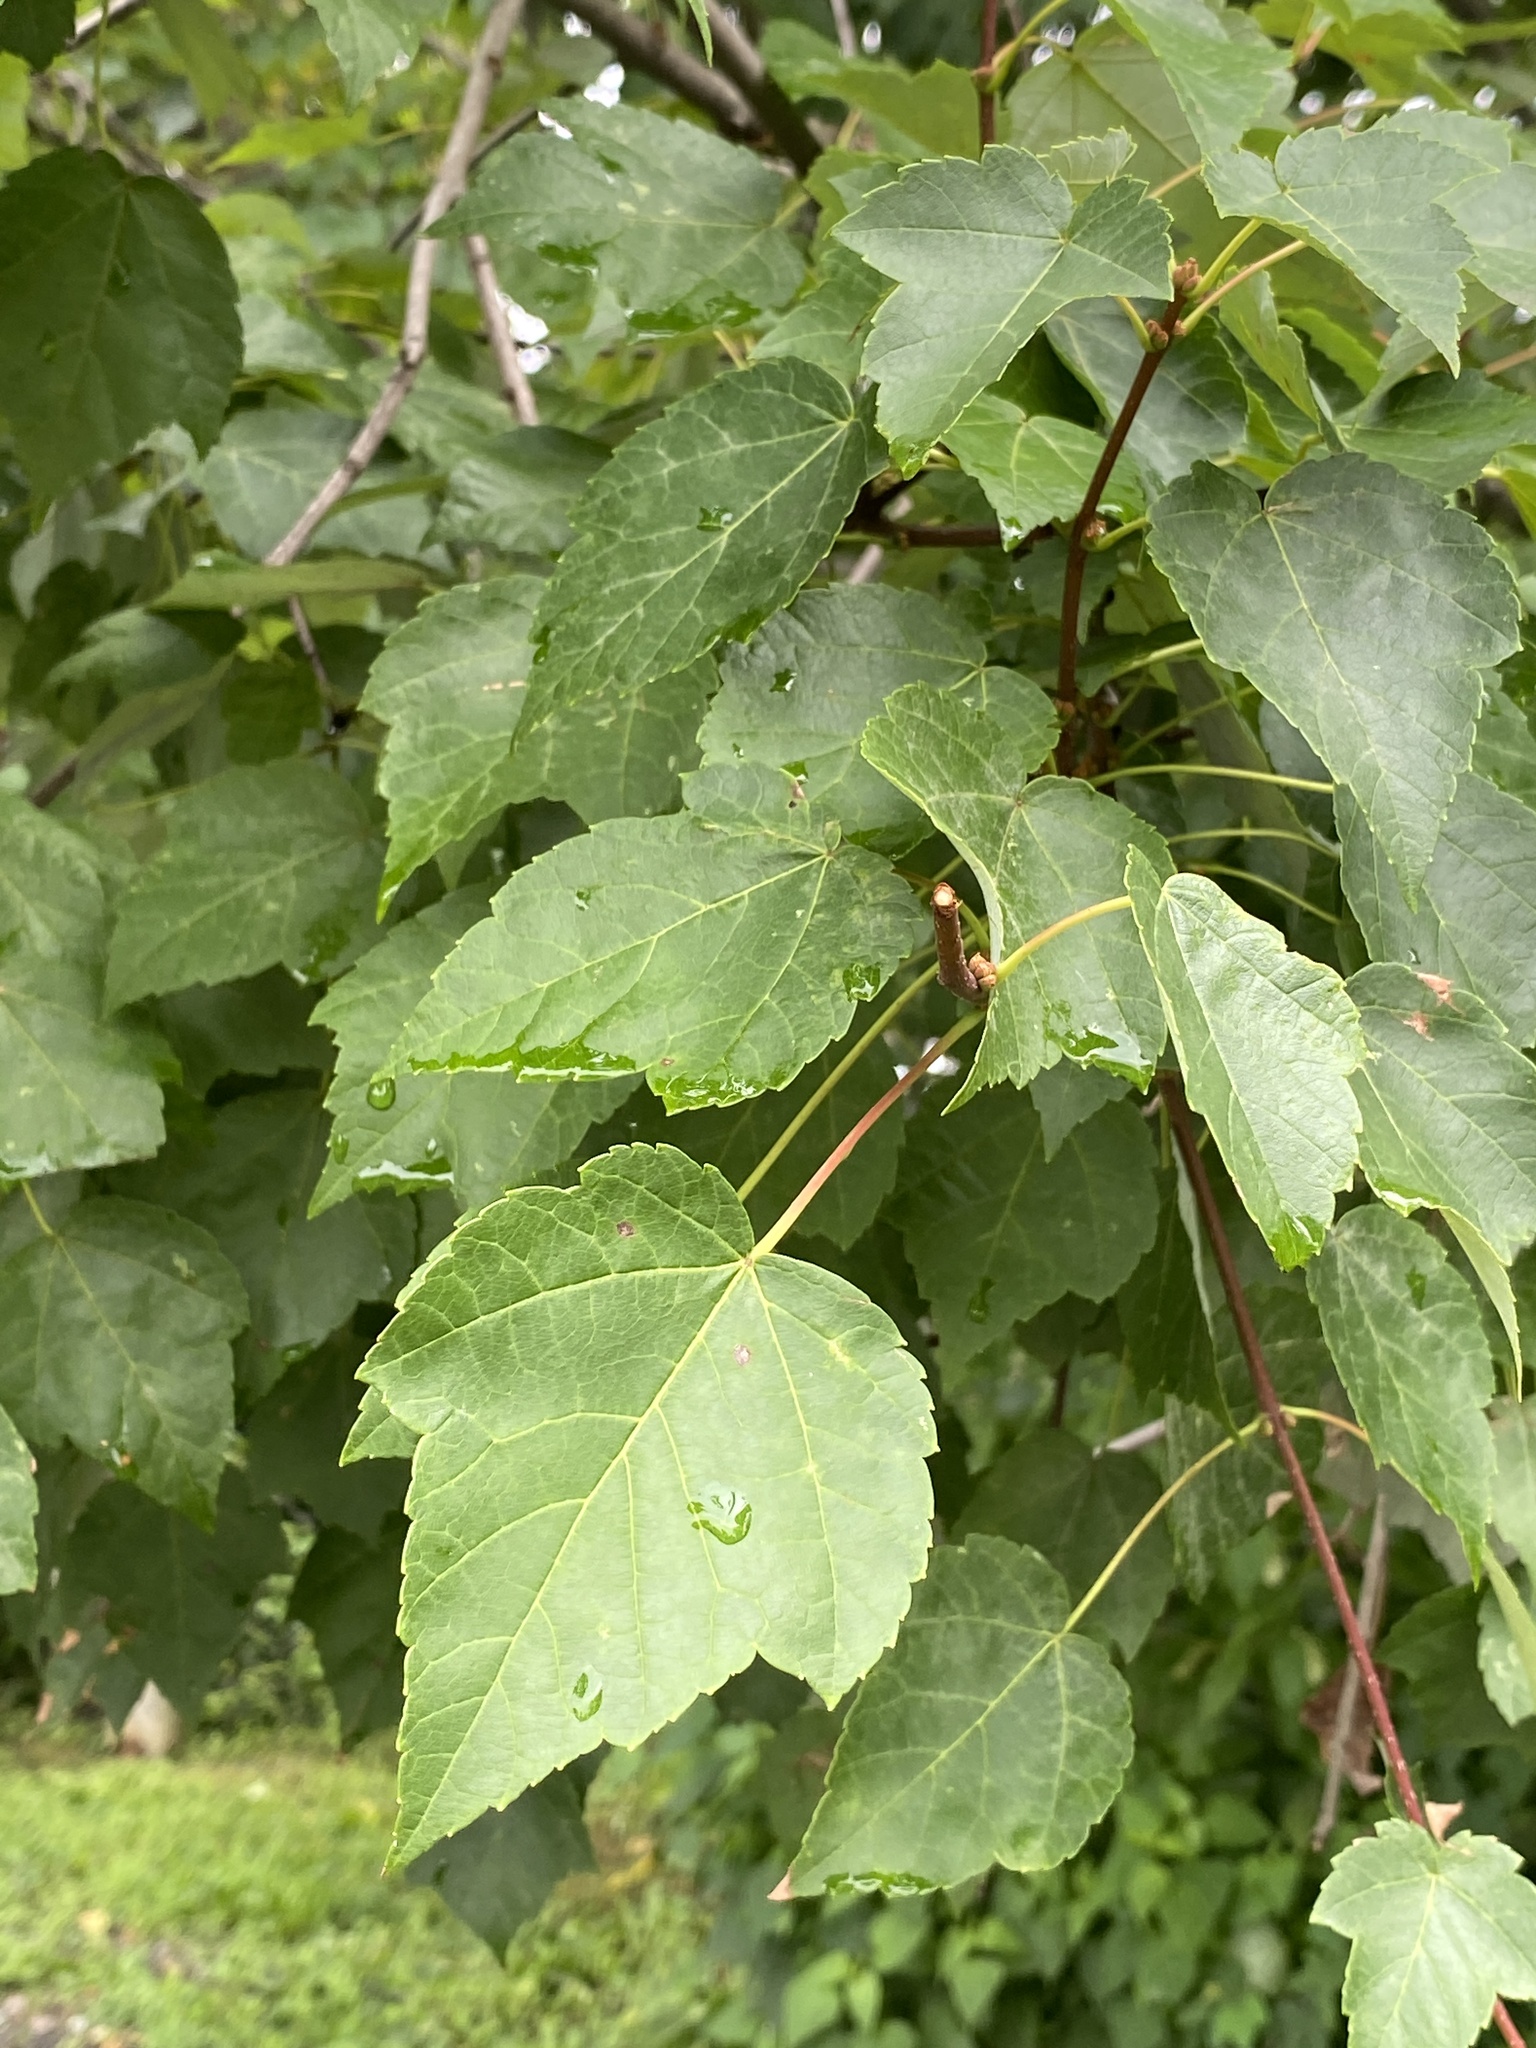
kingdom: Plantae
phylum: Tracheophyta
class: Magnoliopsida
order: Sapindales
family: Sapindaceae
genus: Acer
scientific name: Acer rubrum
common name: Red maple
